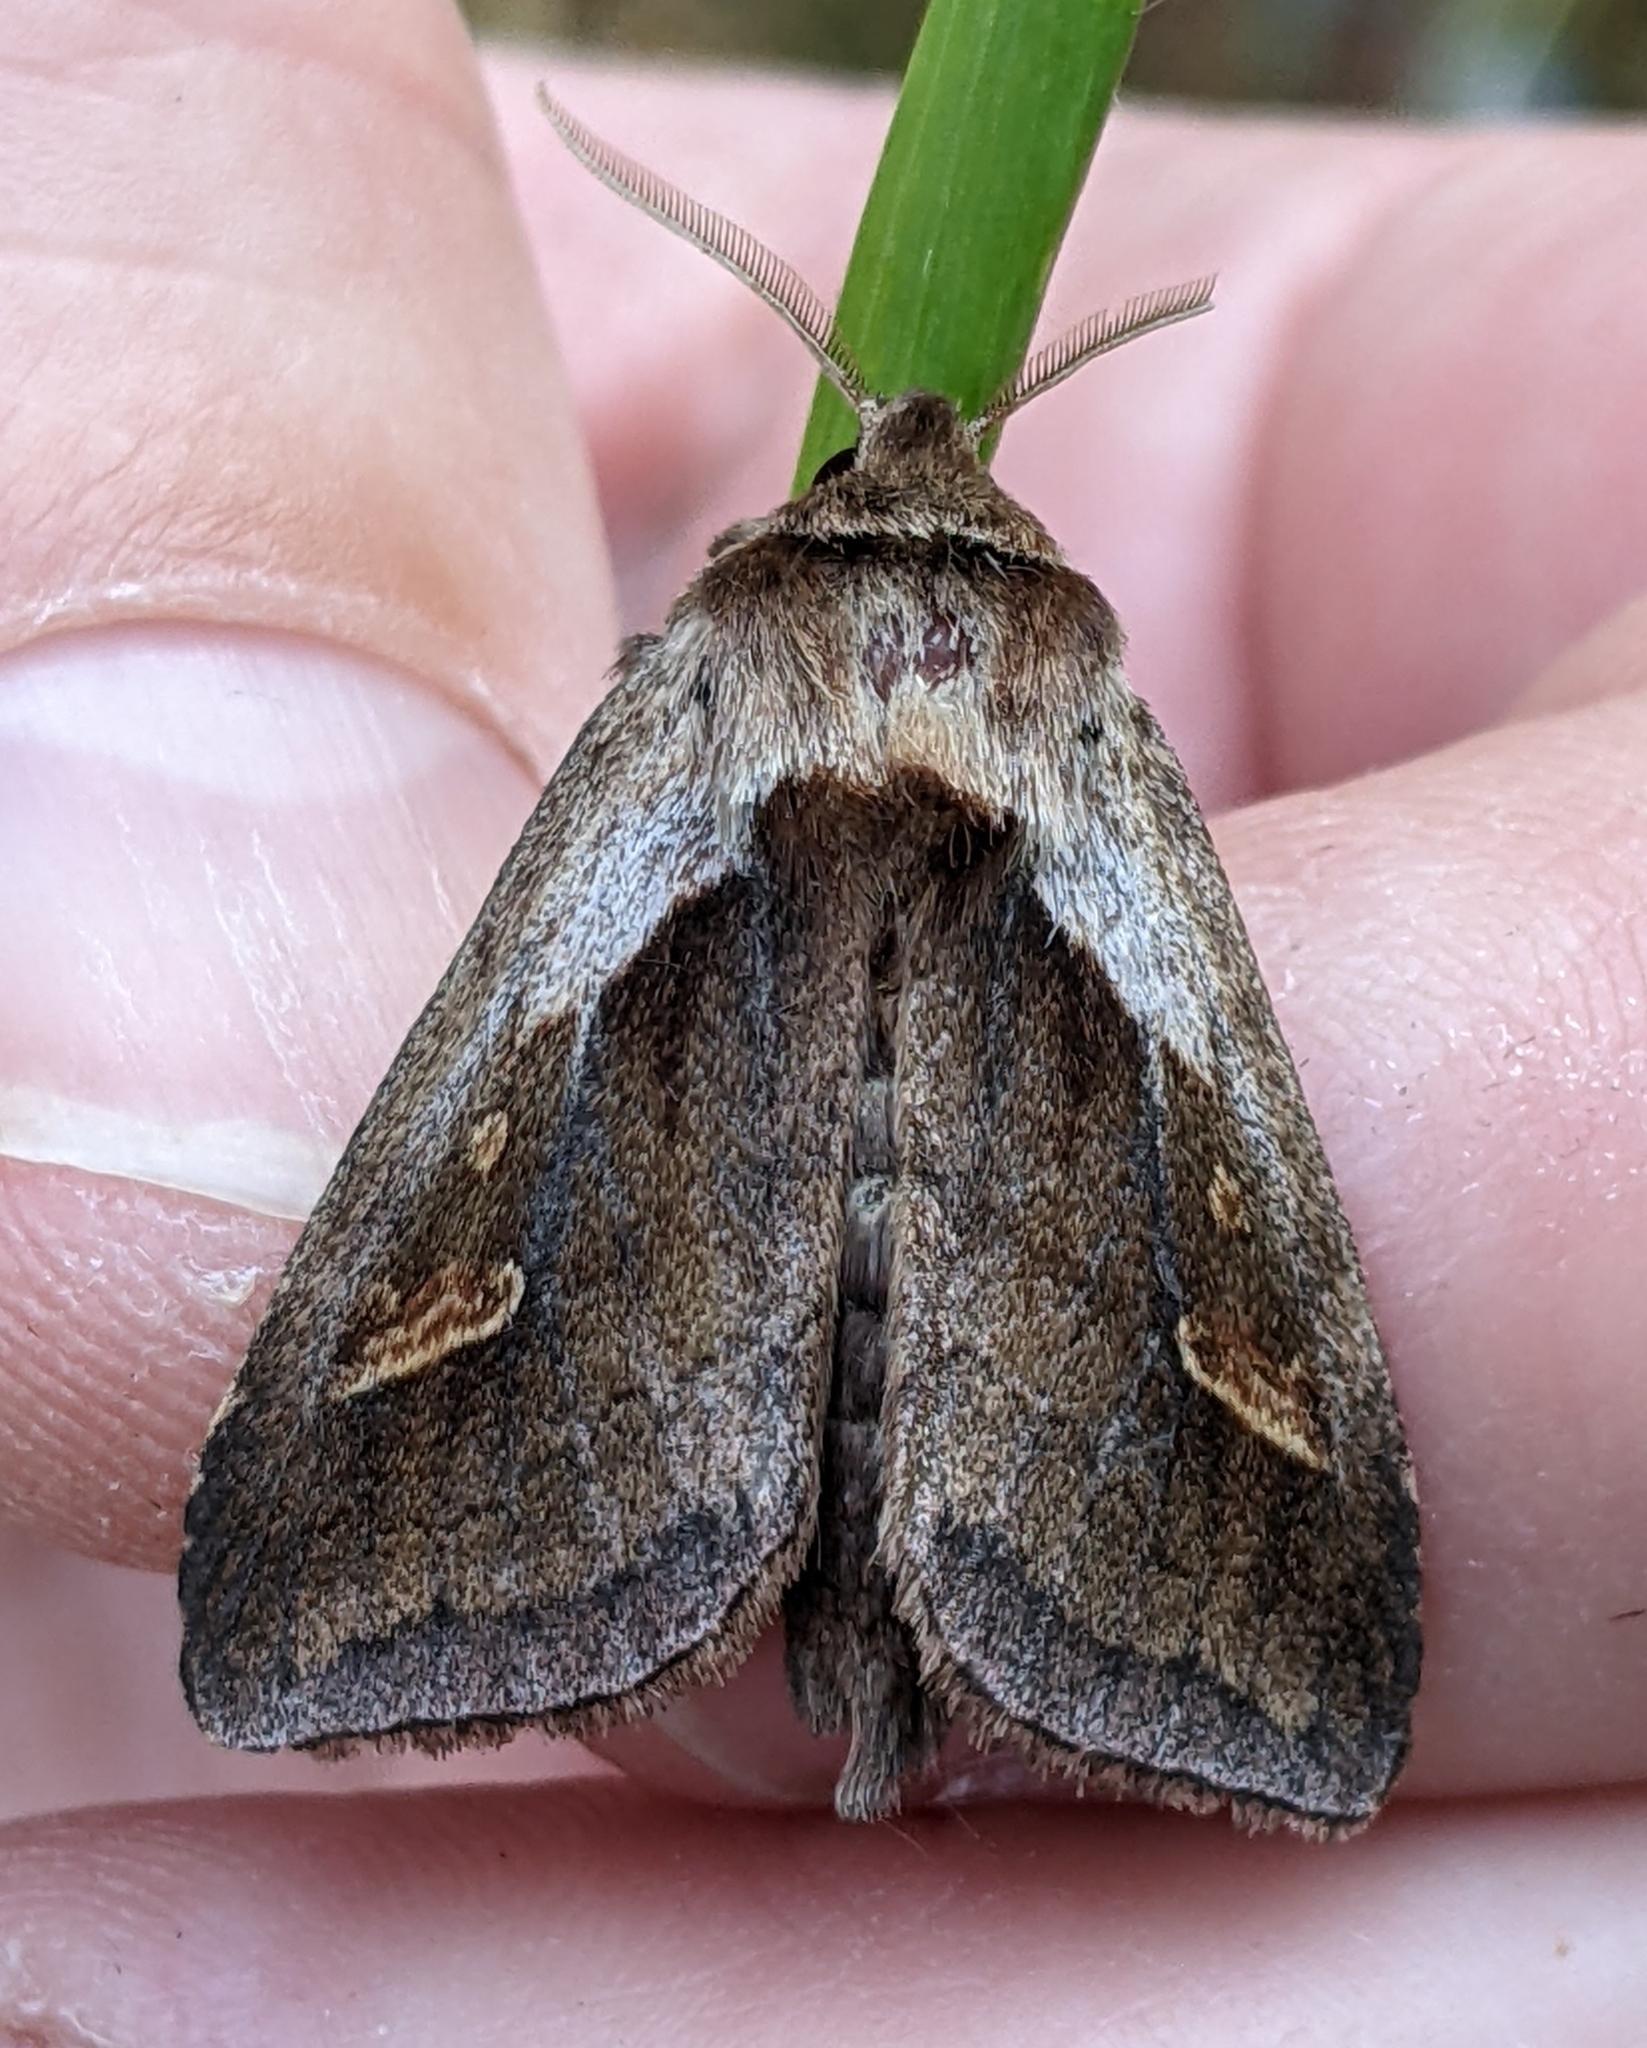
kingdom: Animalia
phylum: Arthropoda
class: Insecta
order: Lepidoptera
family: Noctuidae
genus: Bellura
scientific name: Bellura obliqua
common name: Cattail borer moth
